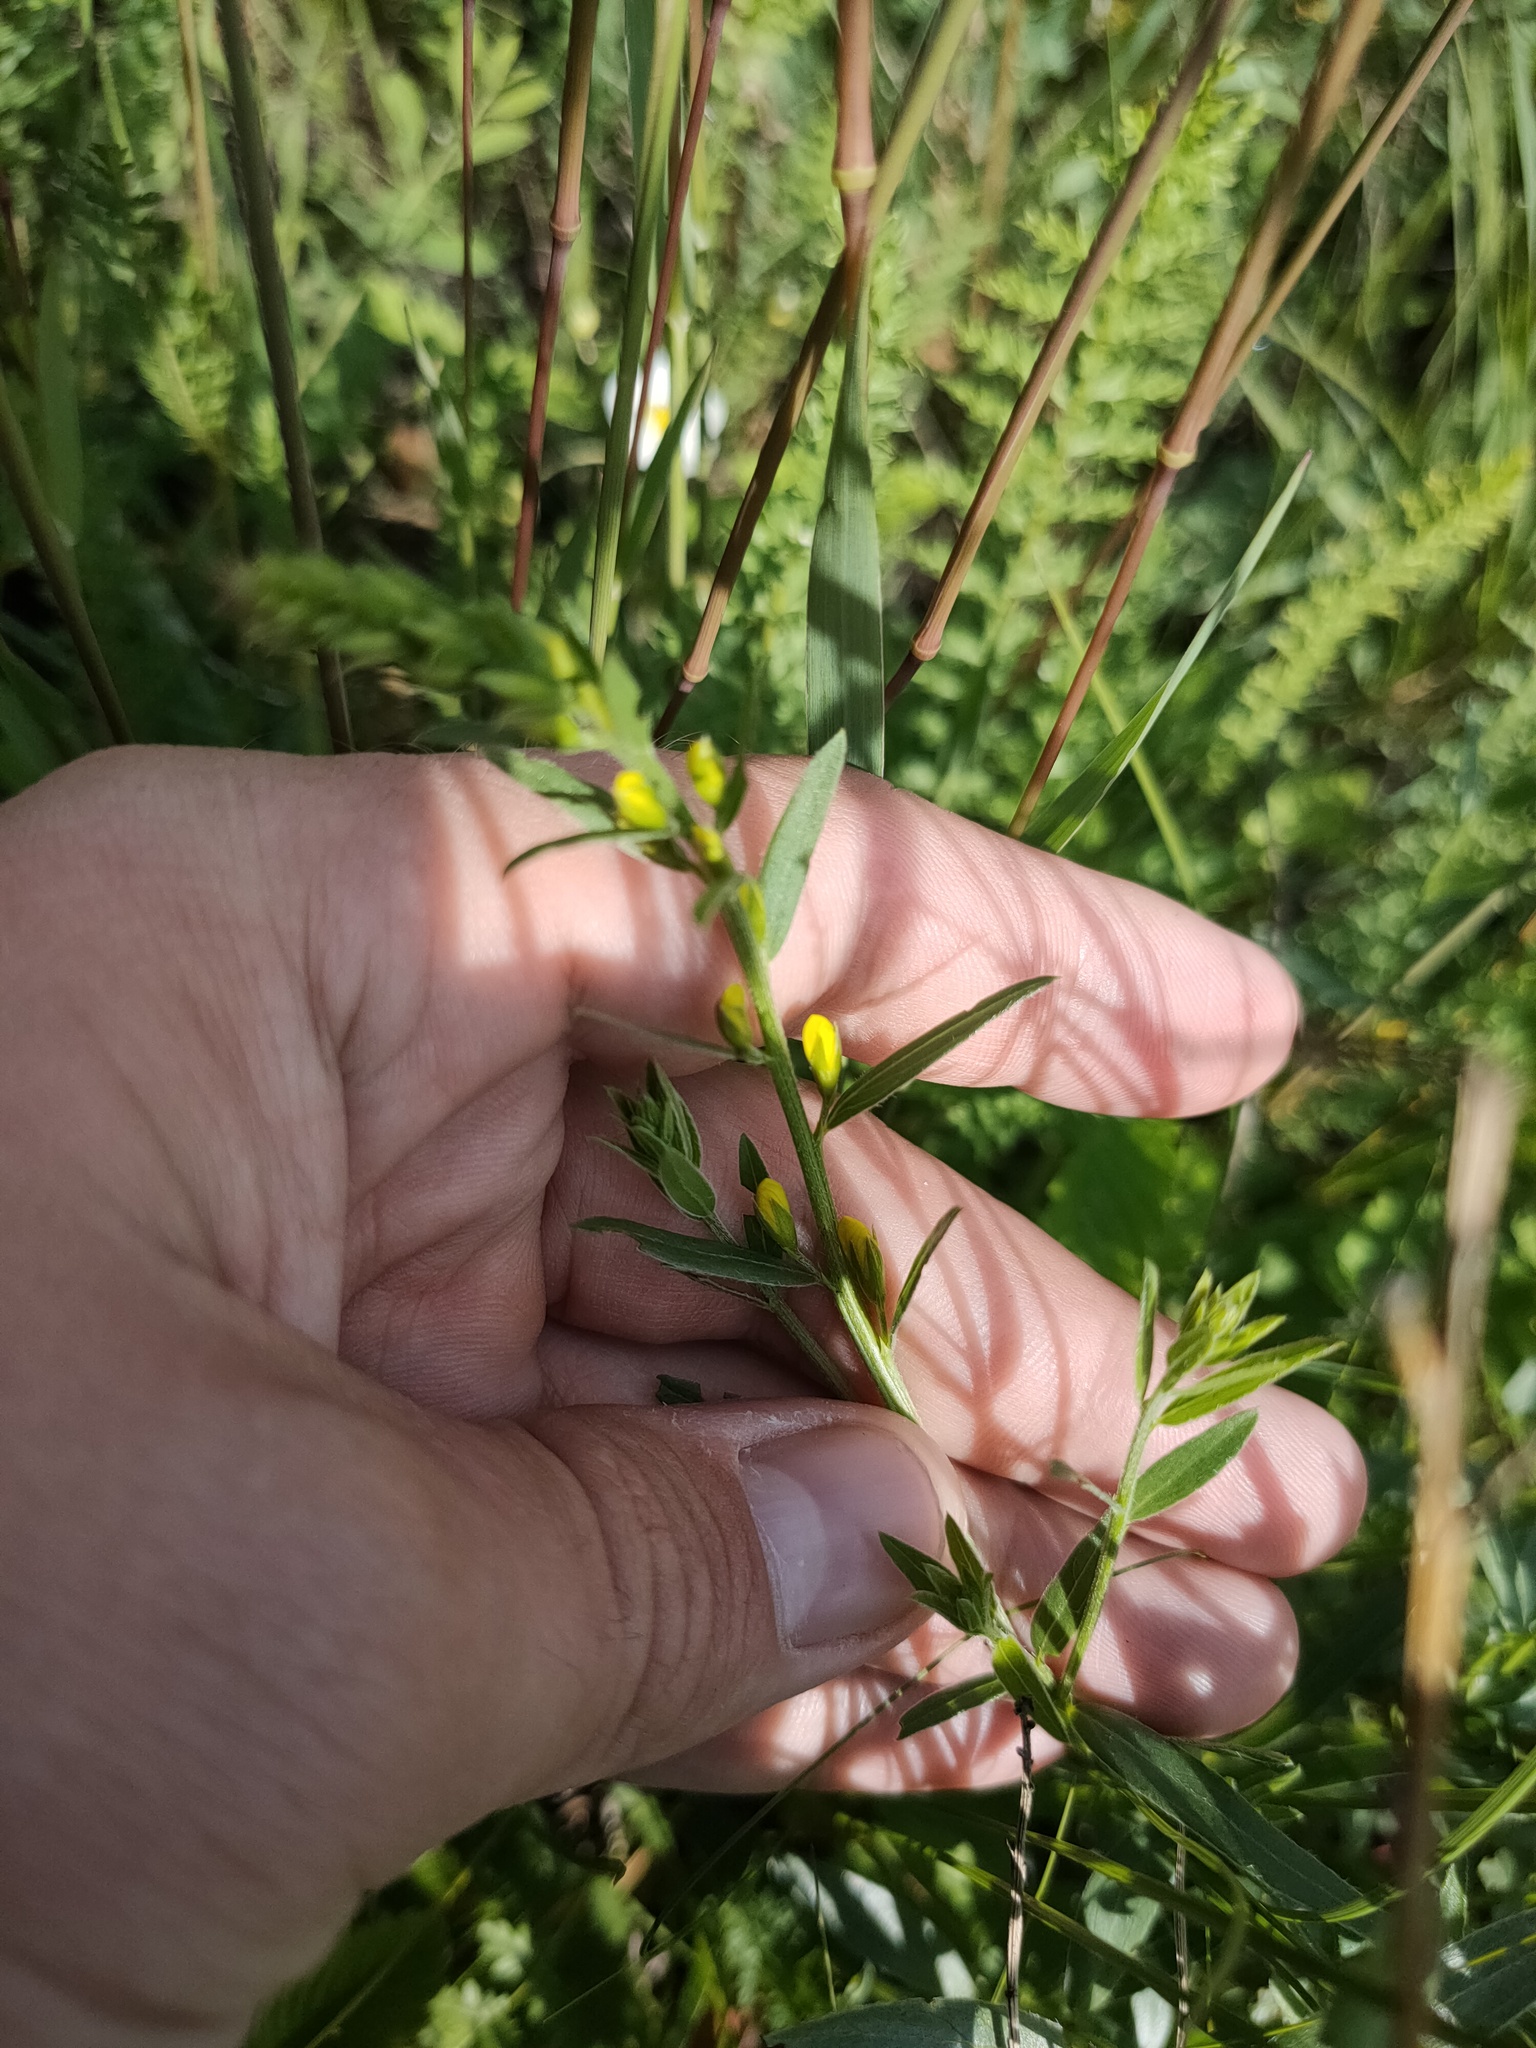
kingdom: Plantae
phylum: Tracheophyta
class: Magnoliopsida
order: Fabales
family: Fabaceae
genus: Genista
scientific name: Genista tinctoria
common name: Dyer's greenweed
